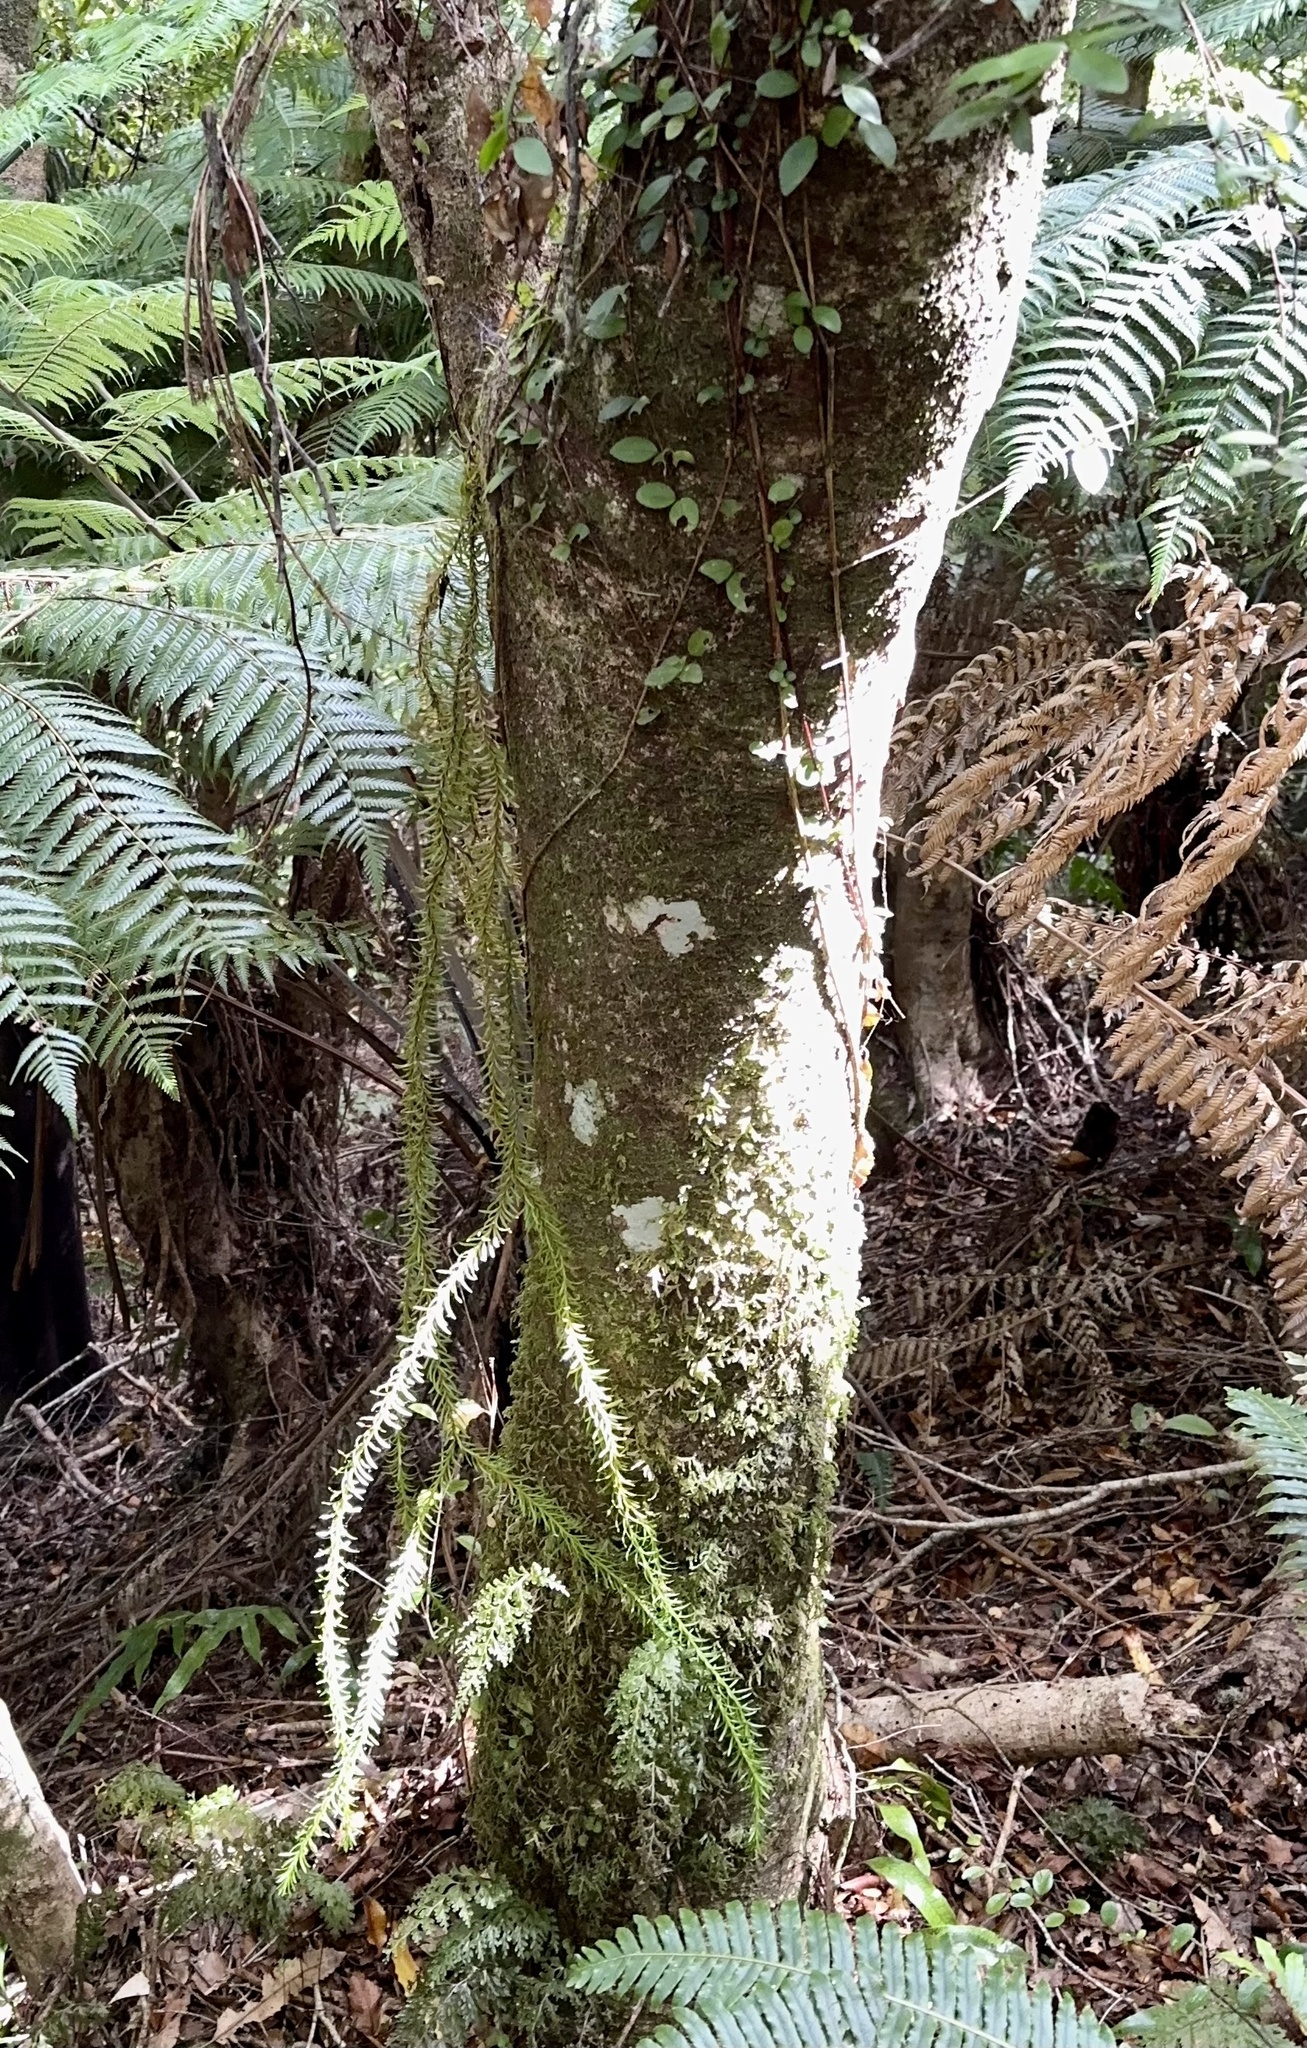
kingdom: Plantae
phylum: Tracheophyta
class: Lycopodiopsida
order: Lycopodiales
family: Lycopodiaceae
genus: Phlegmariurus
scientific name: Phlegmariurus varius
